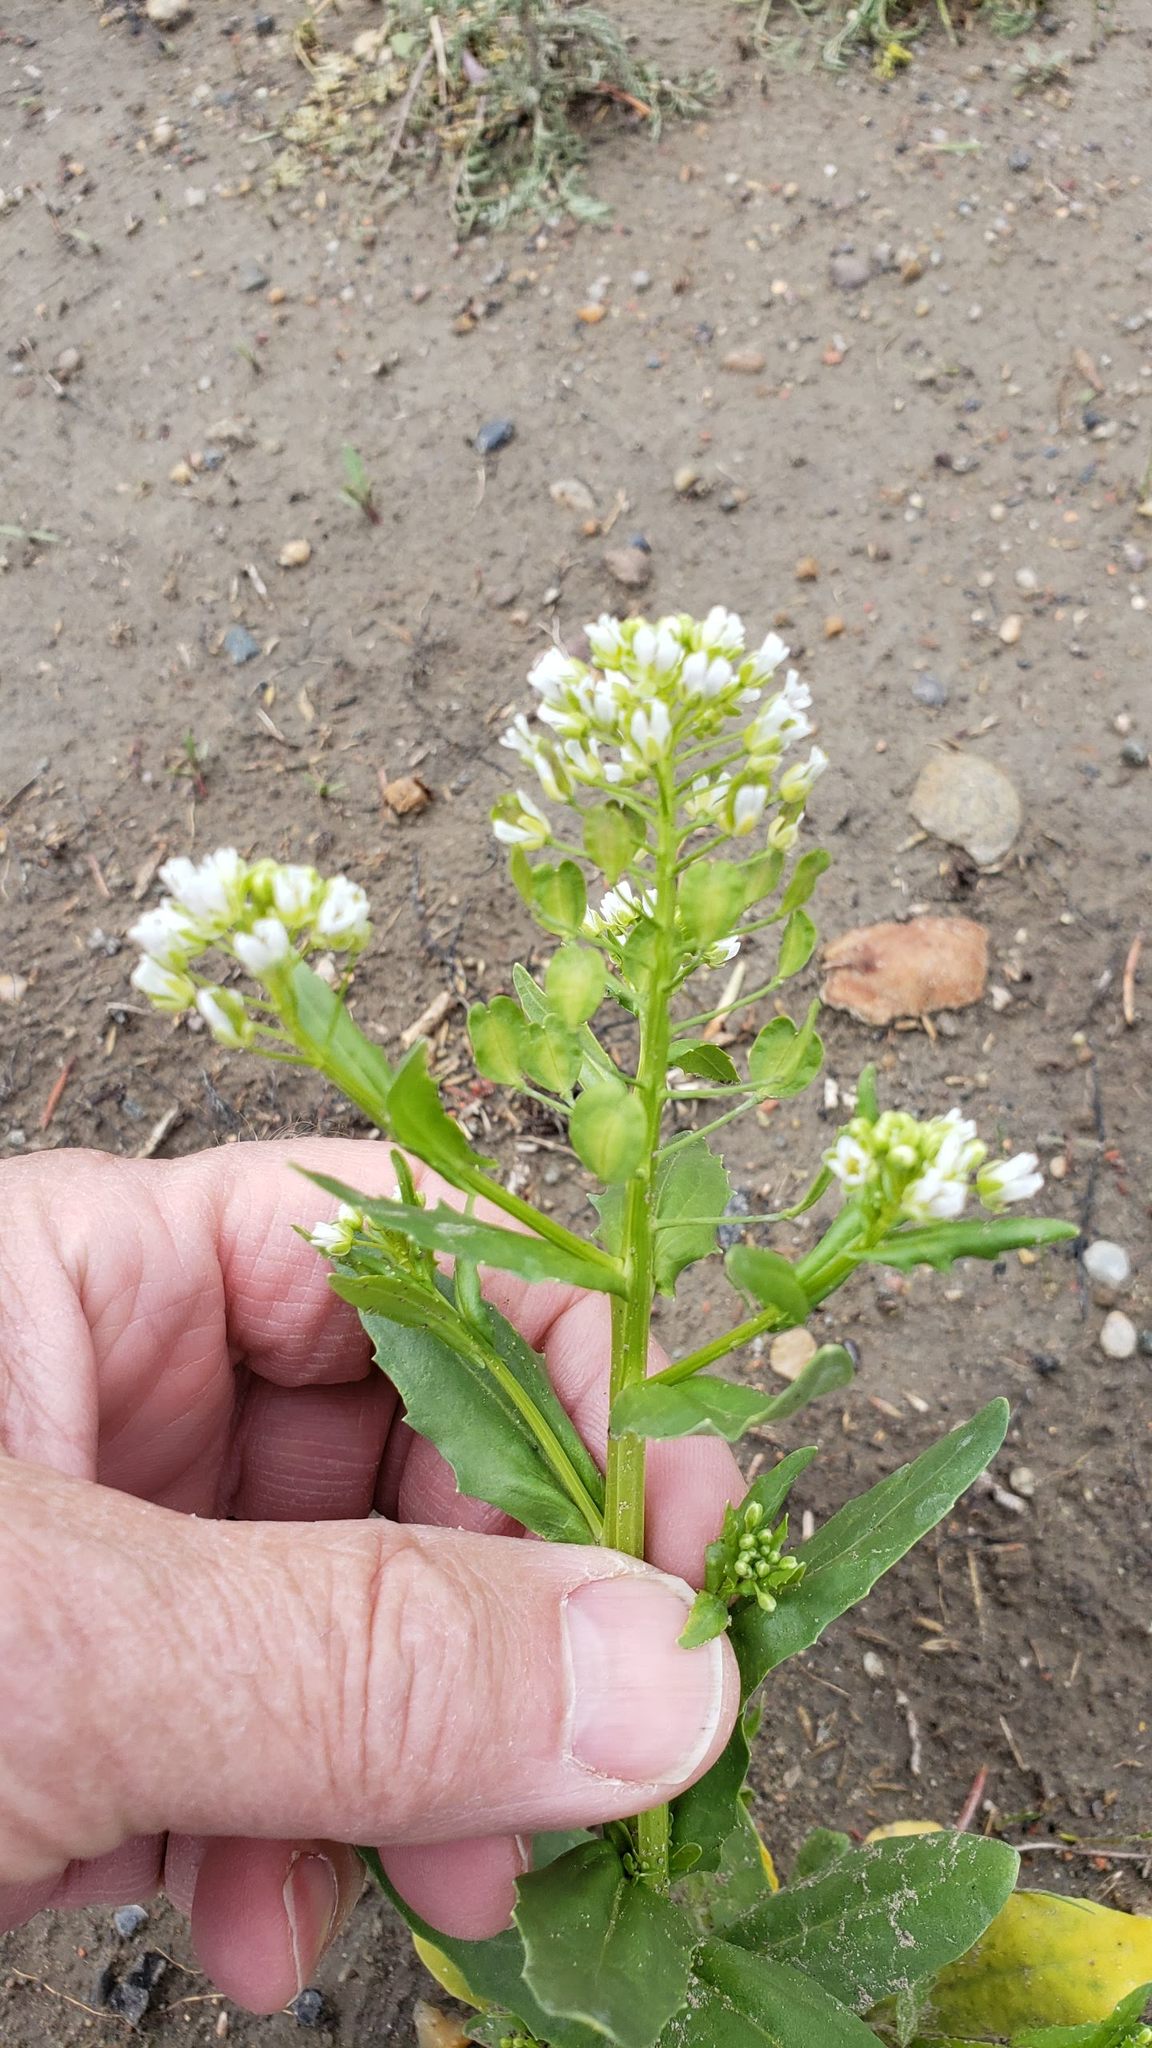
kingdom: Plantae
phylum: Tracheophyta
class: Magnoliopsida
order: Brassicales
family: Brassicaceae
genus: Thlaspi
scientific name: Thlaspi arvense
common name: Field pennycress
